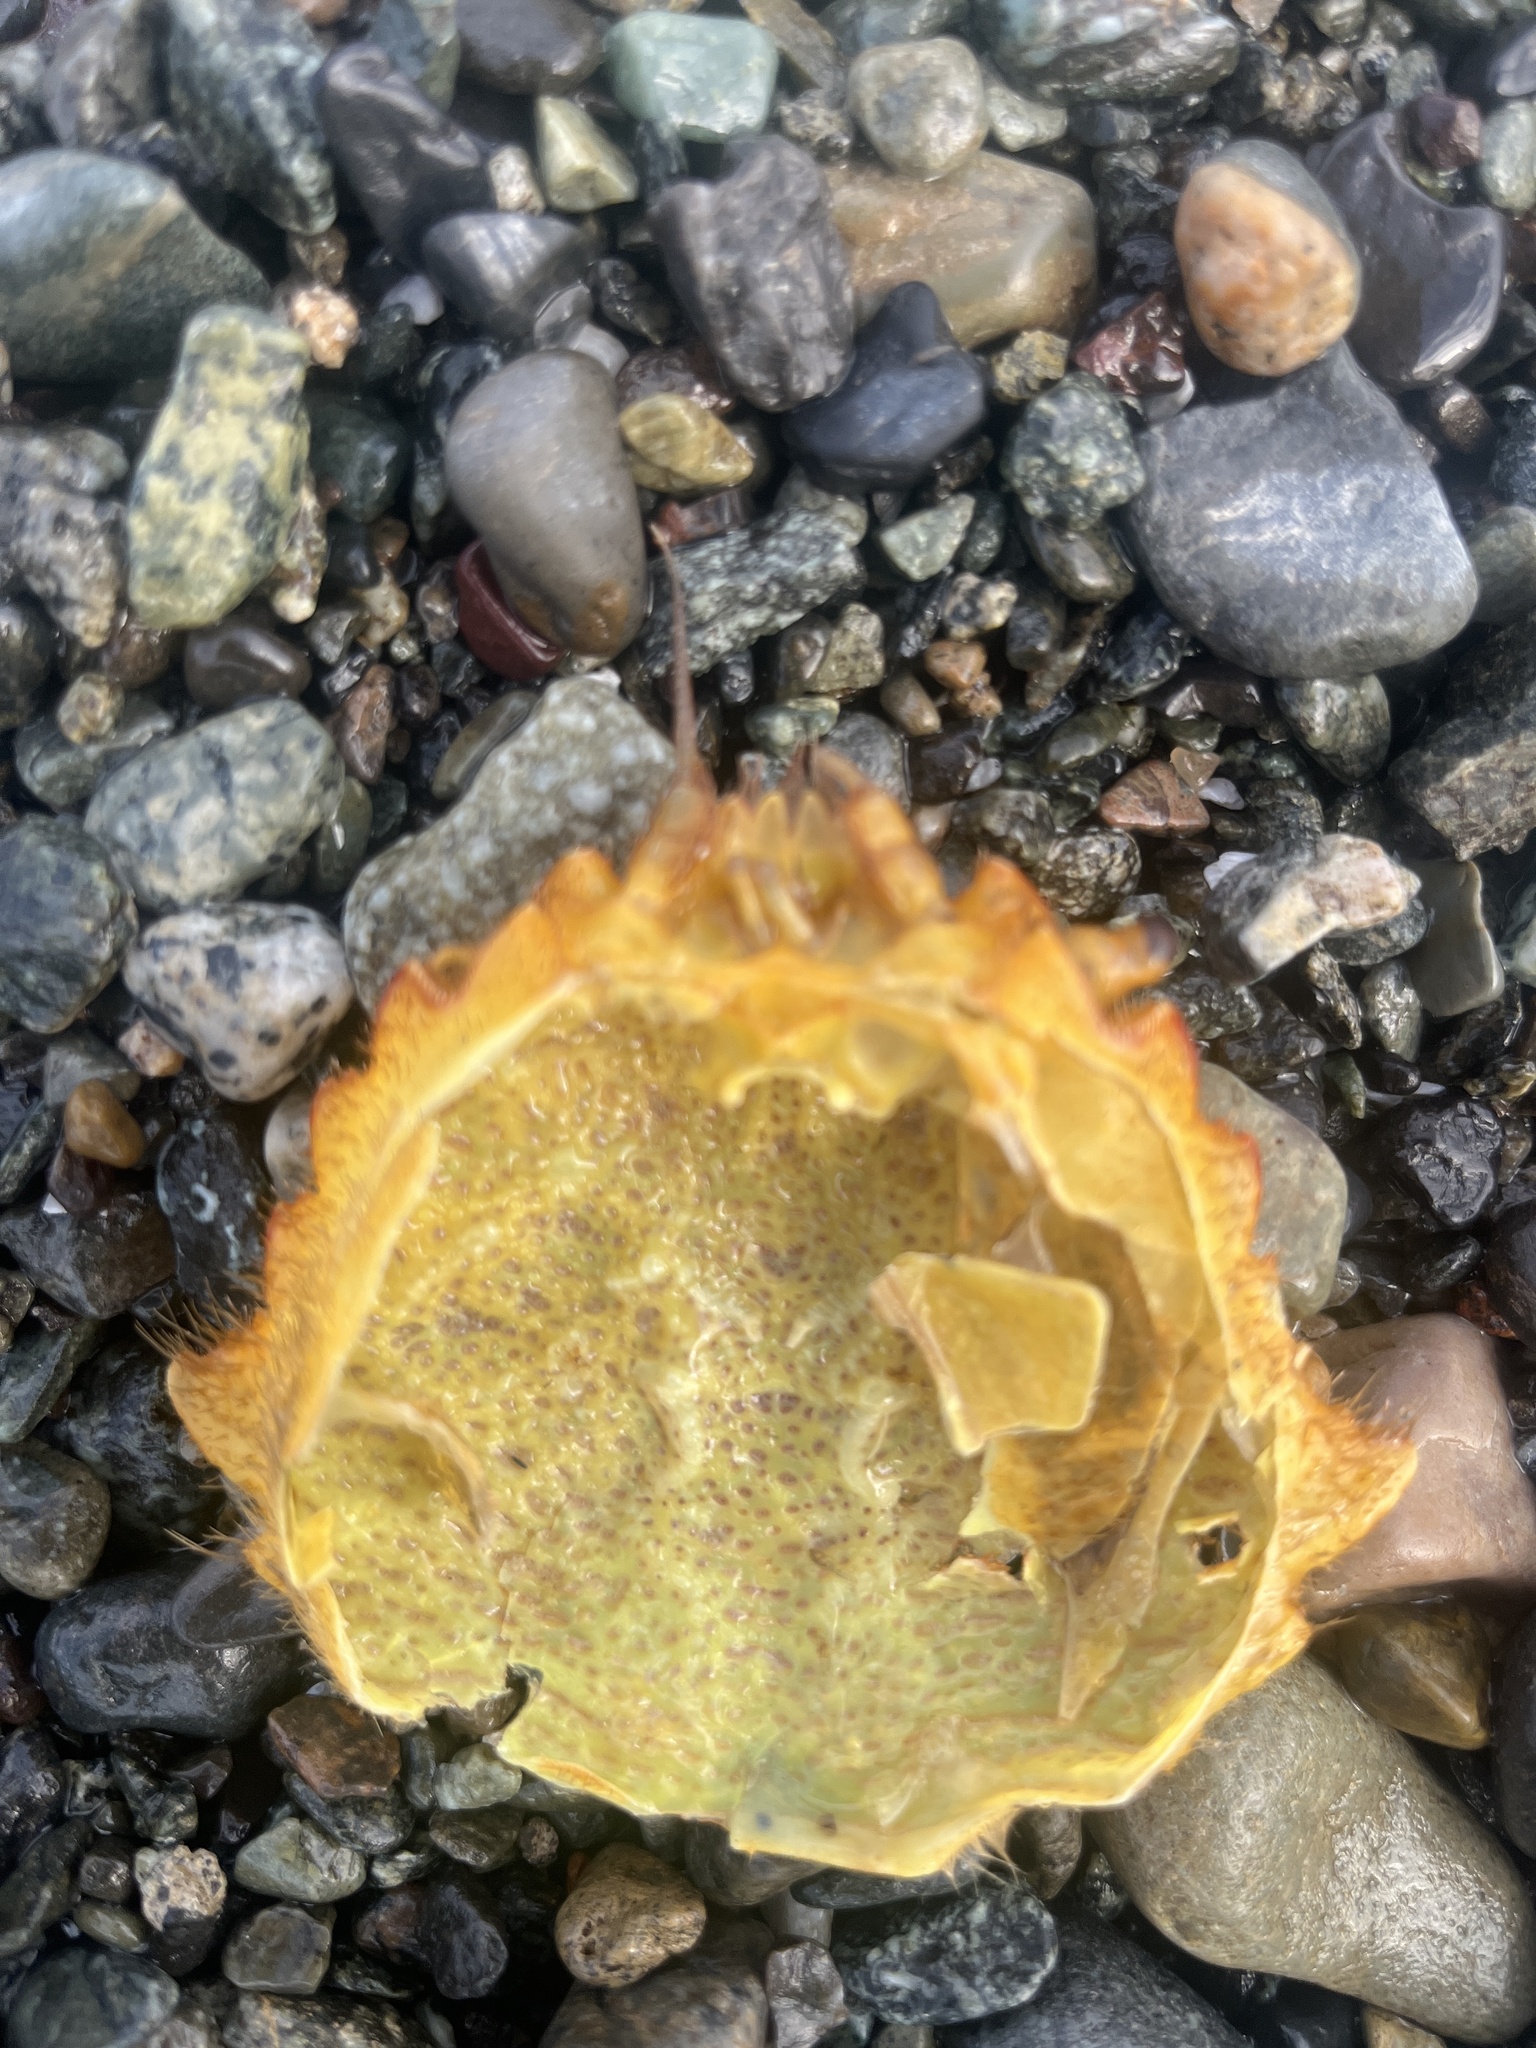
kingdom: Animalia
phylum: Arthropoda
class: Malacostraca
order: Decapoda
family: Cheiragonidae
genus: Telmessus
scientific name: Telmessus cheiragonus
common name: Helmet crab
